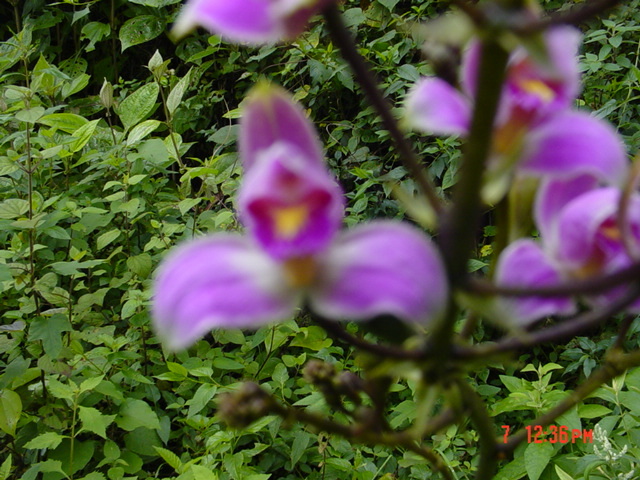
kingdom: Plantae
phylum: Tracheophyta
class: Liliopsida
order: Asparagales
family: Orchidaceae
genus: Bletia
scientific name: Bletia purpurea
